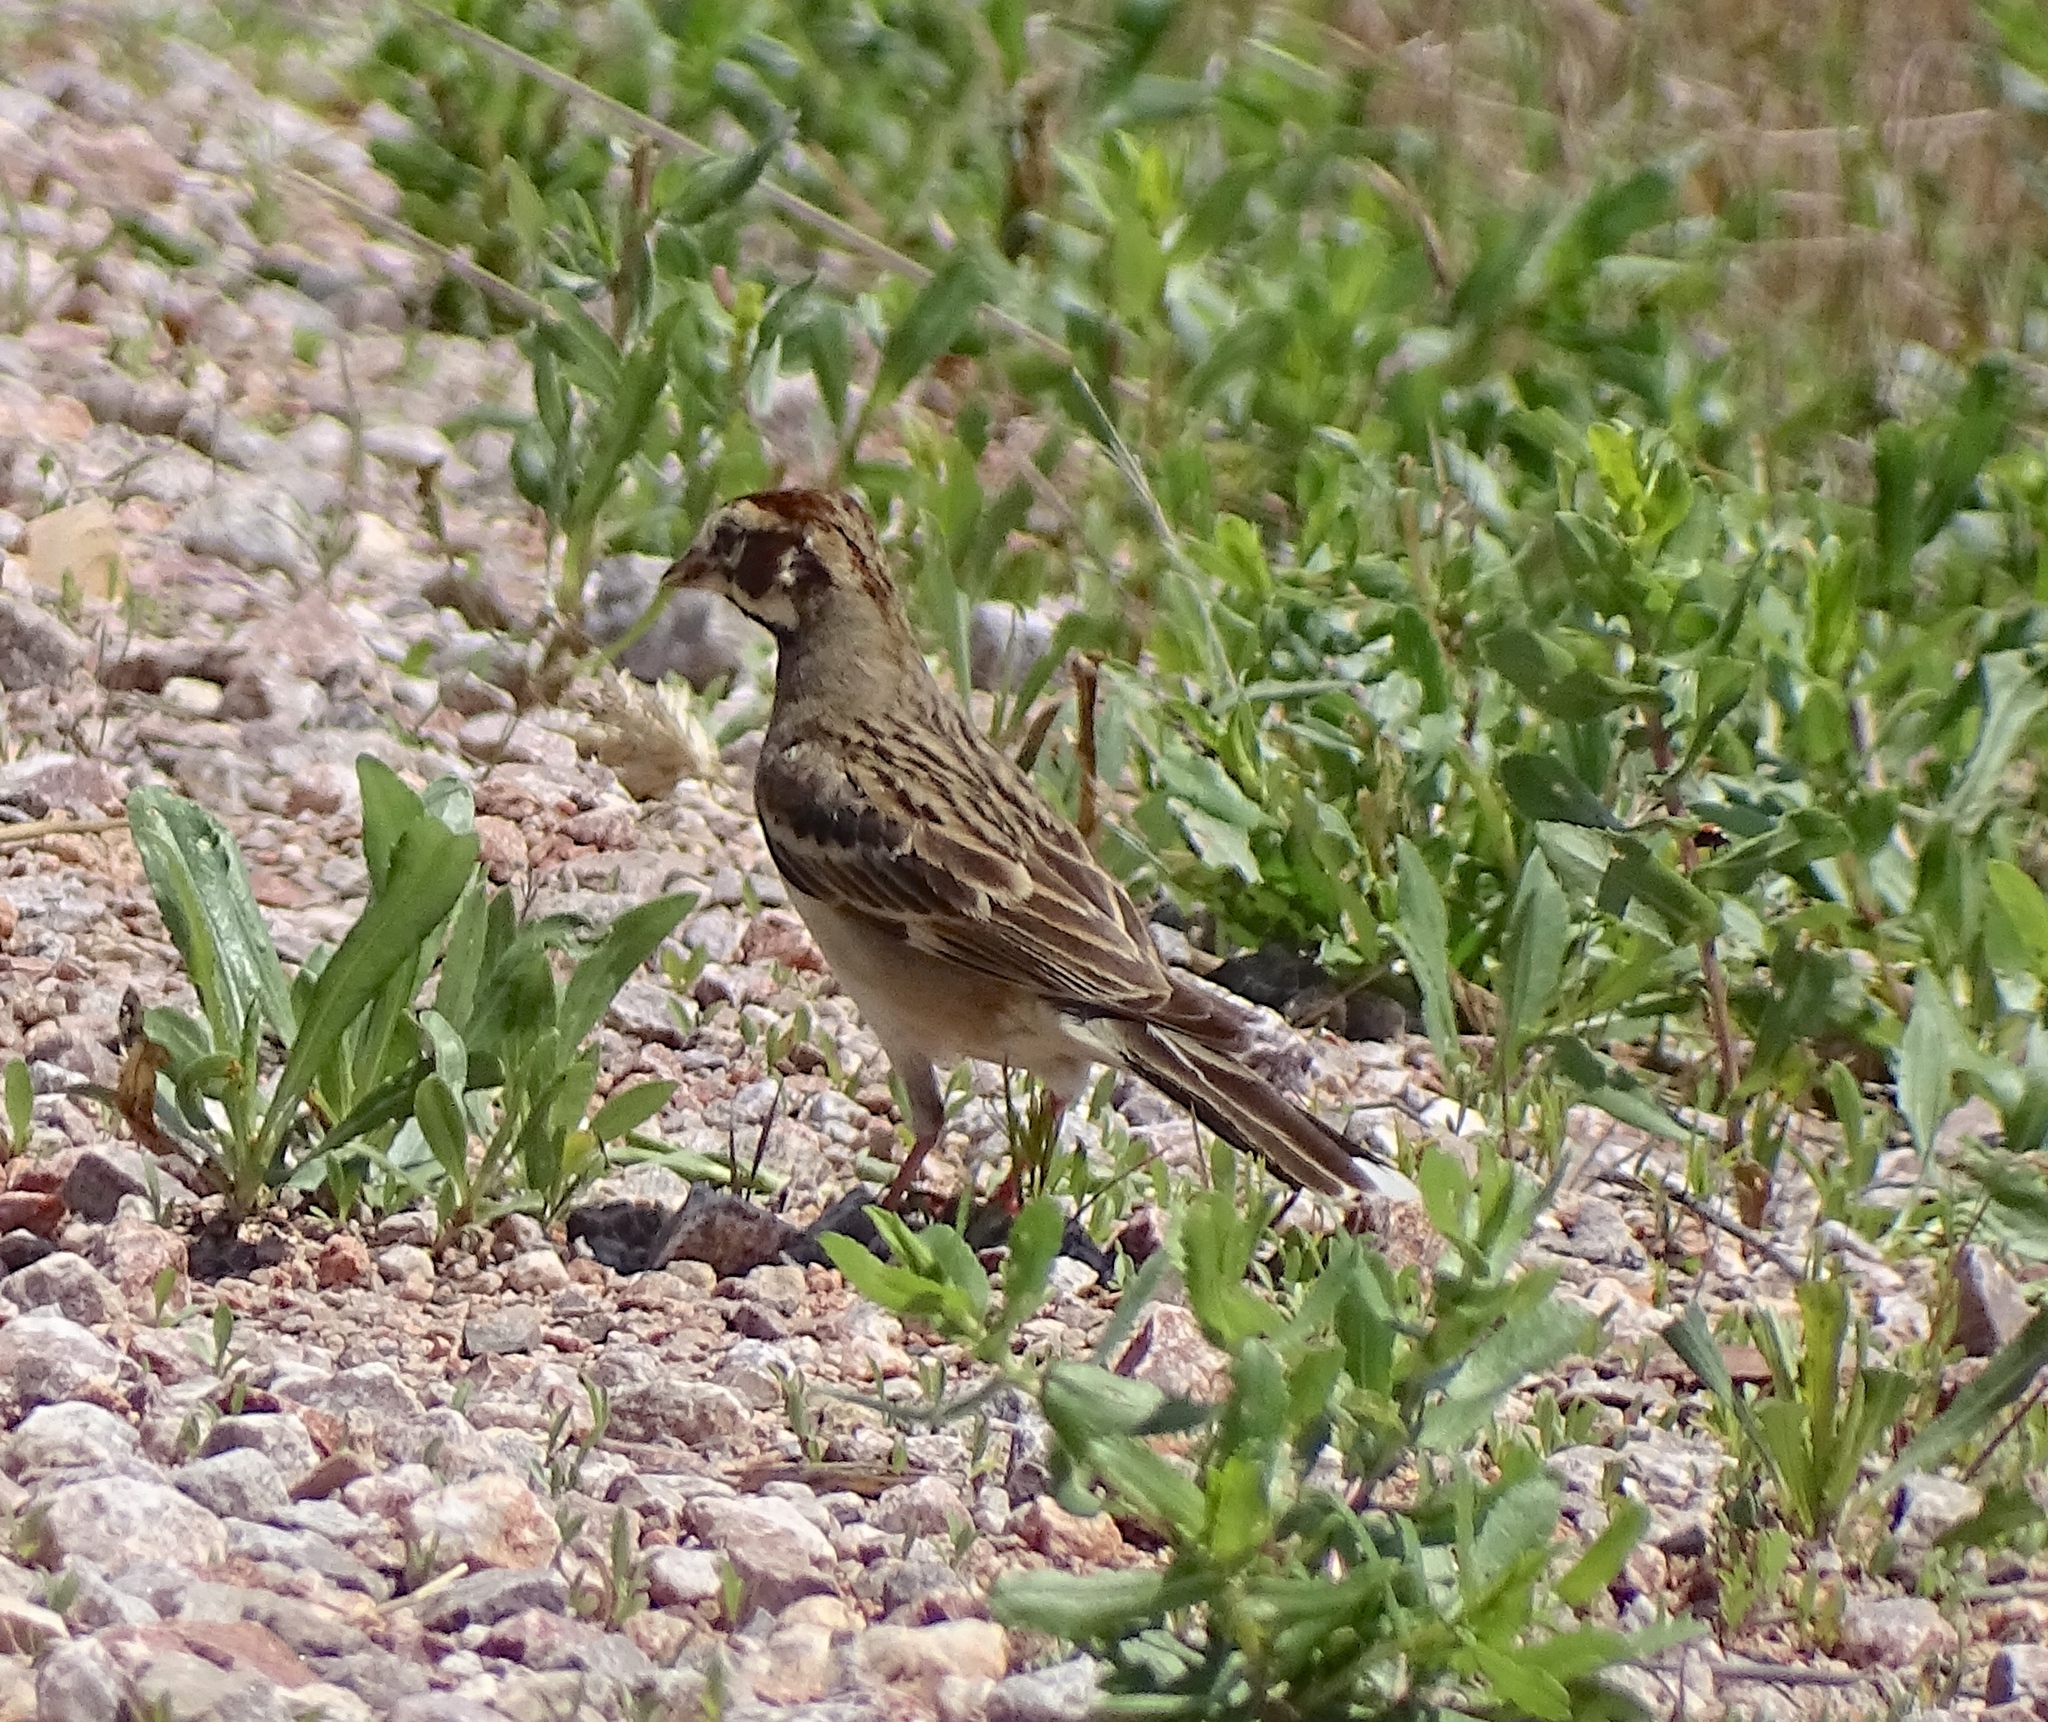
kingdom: Animalia
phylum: Chordata
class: Aves
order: Passeriformes
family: Passerellidae
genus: Chondestes
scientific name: Chondestes grammacus
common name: Lark sparrow
